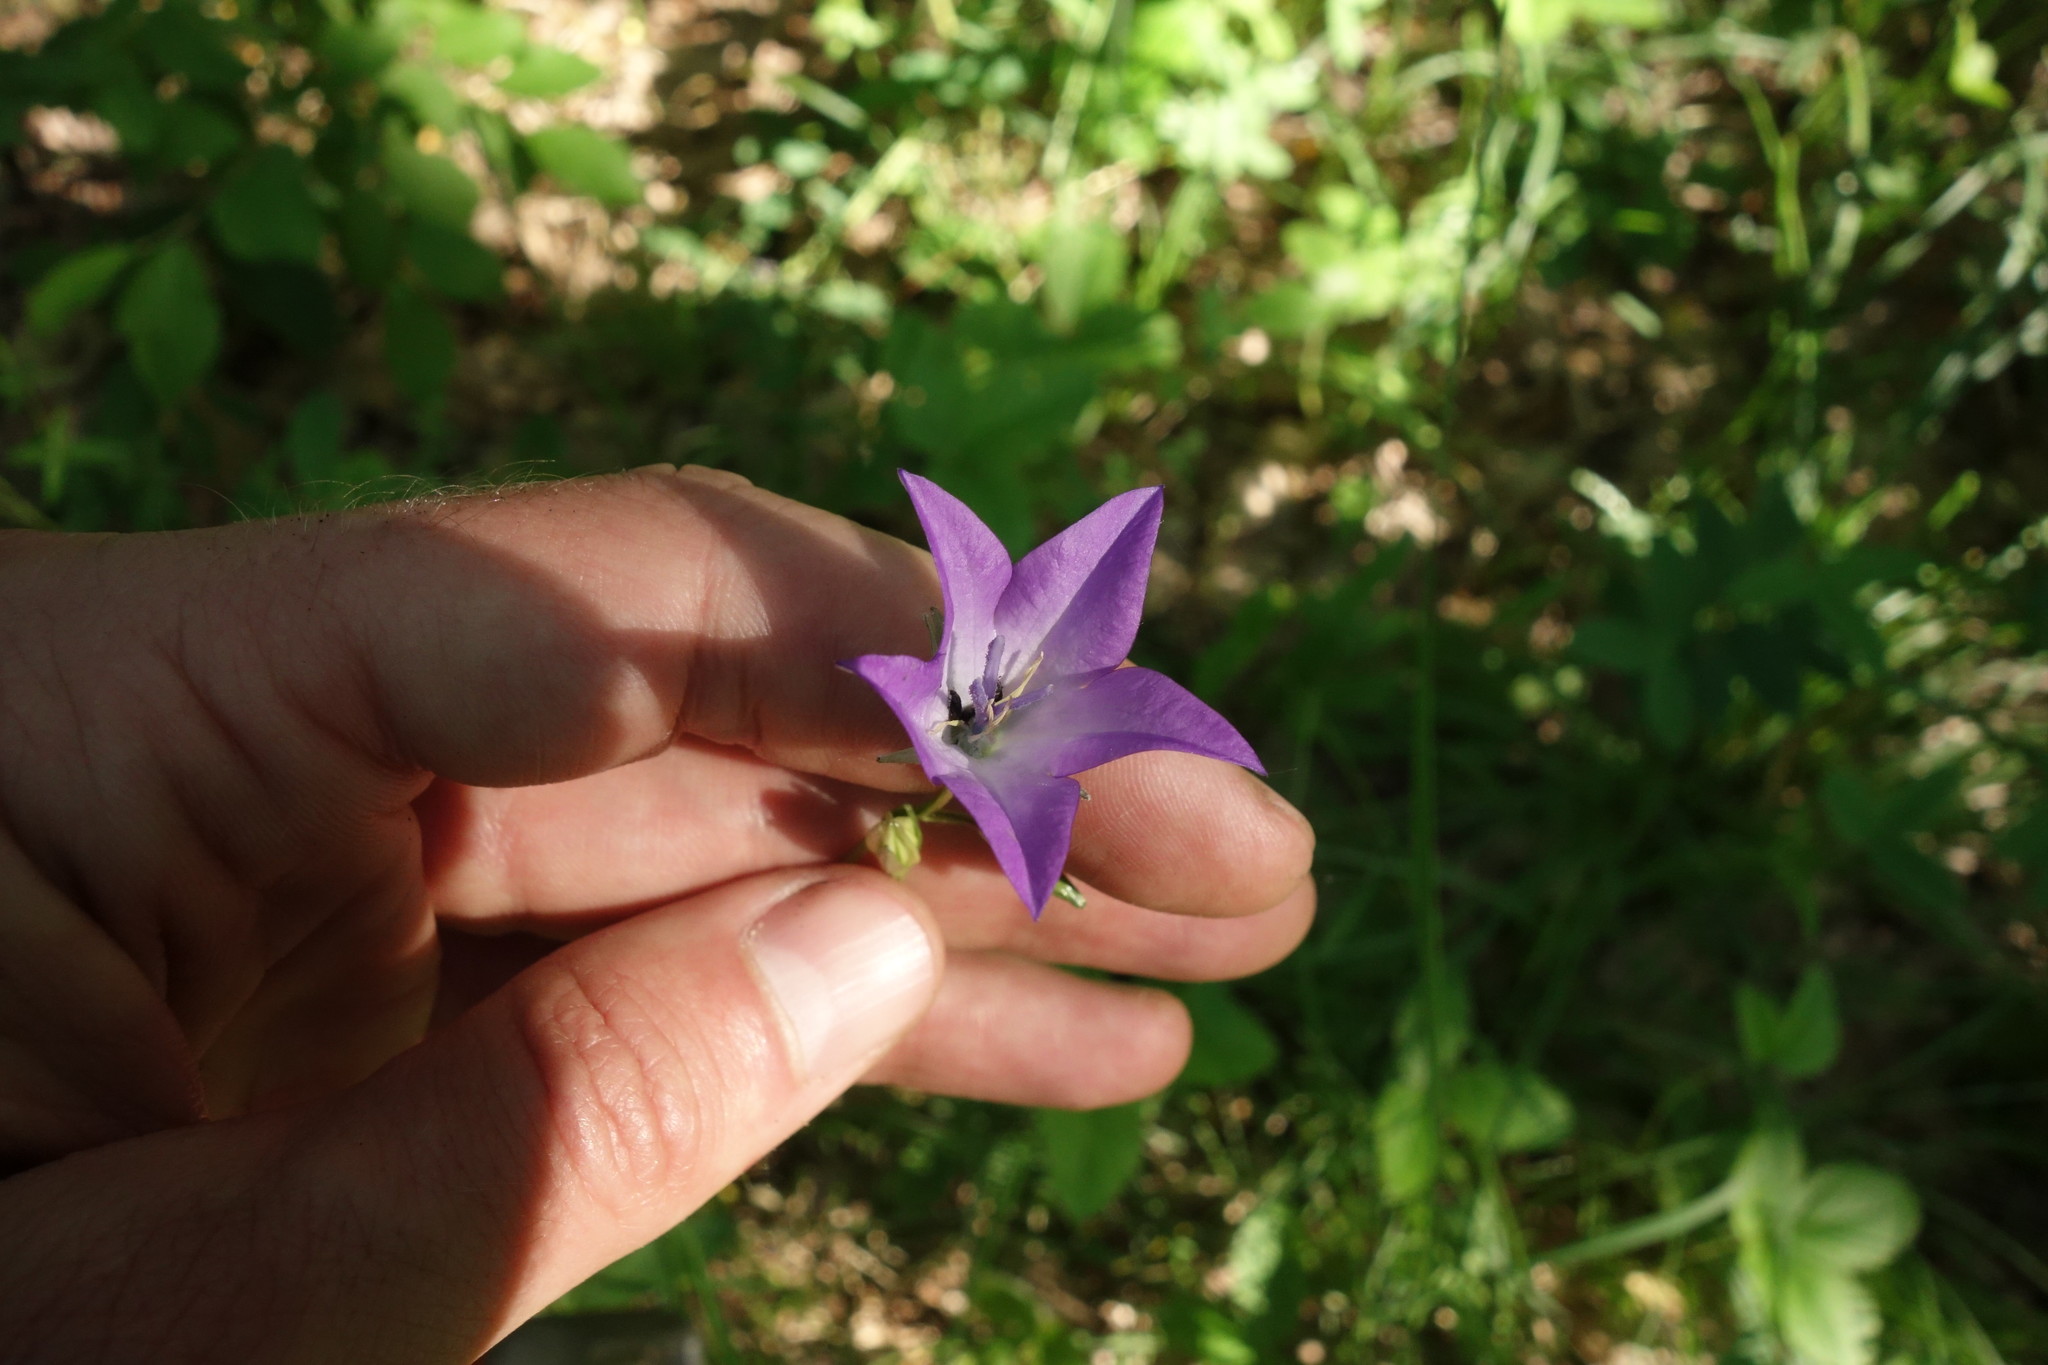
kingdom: Plantae
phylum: Tracheophyta
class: Magnoliopsida
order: Asterales
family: Campanulaceae
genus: Campanula
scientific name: Campanula stevenii
